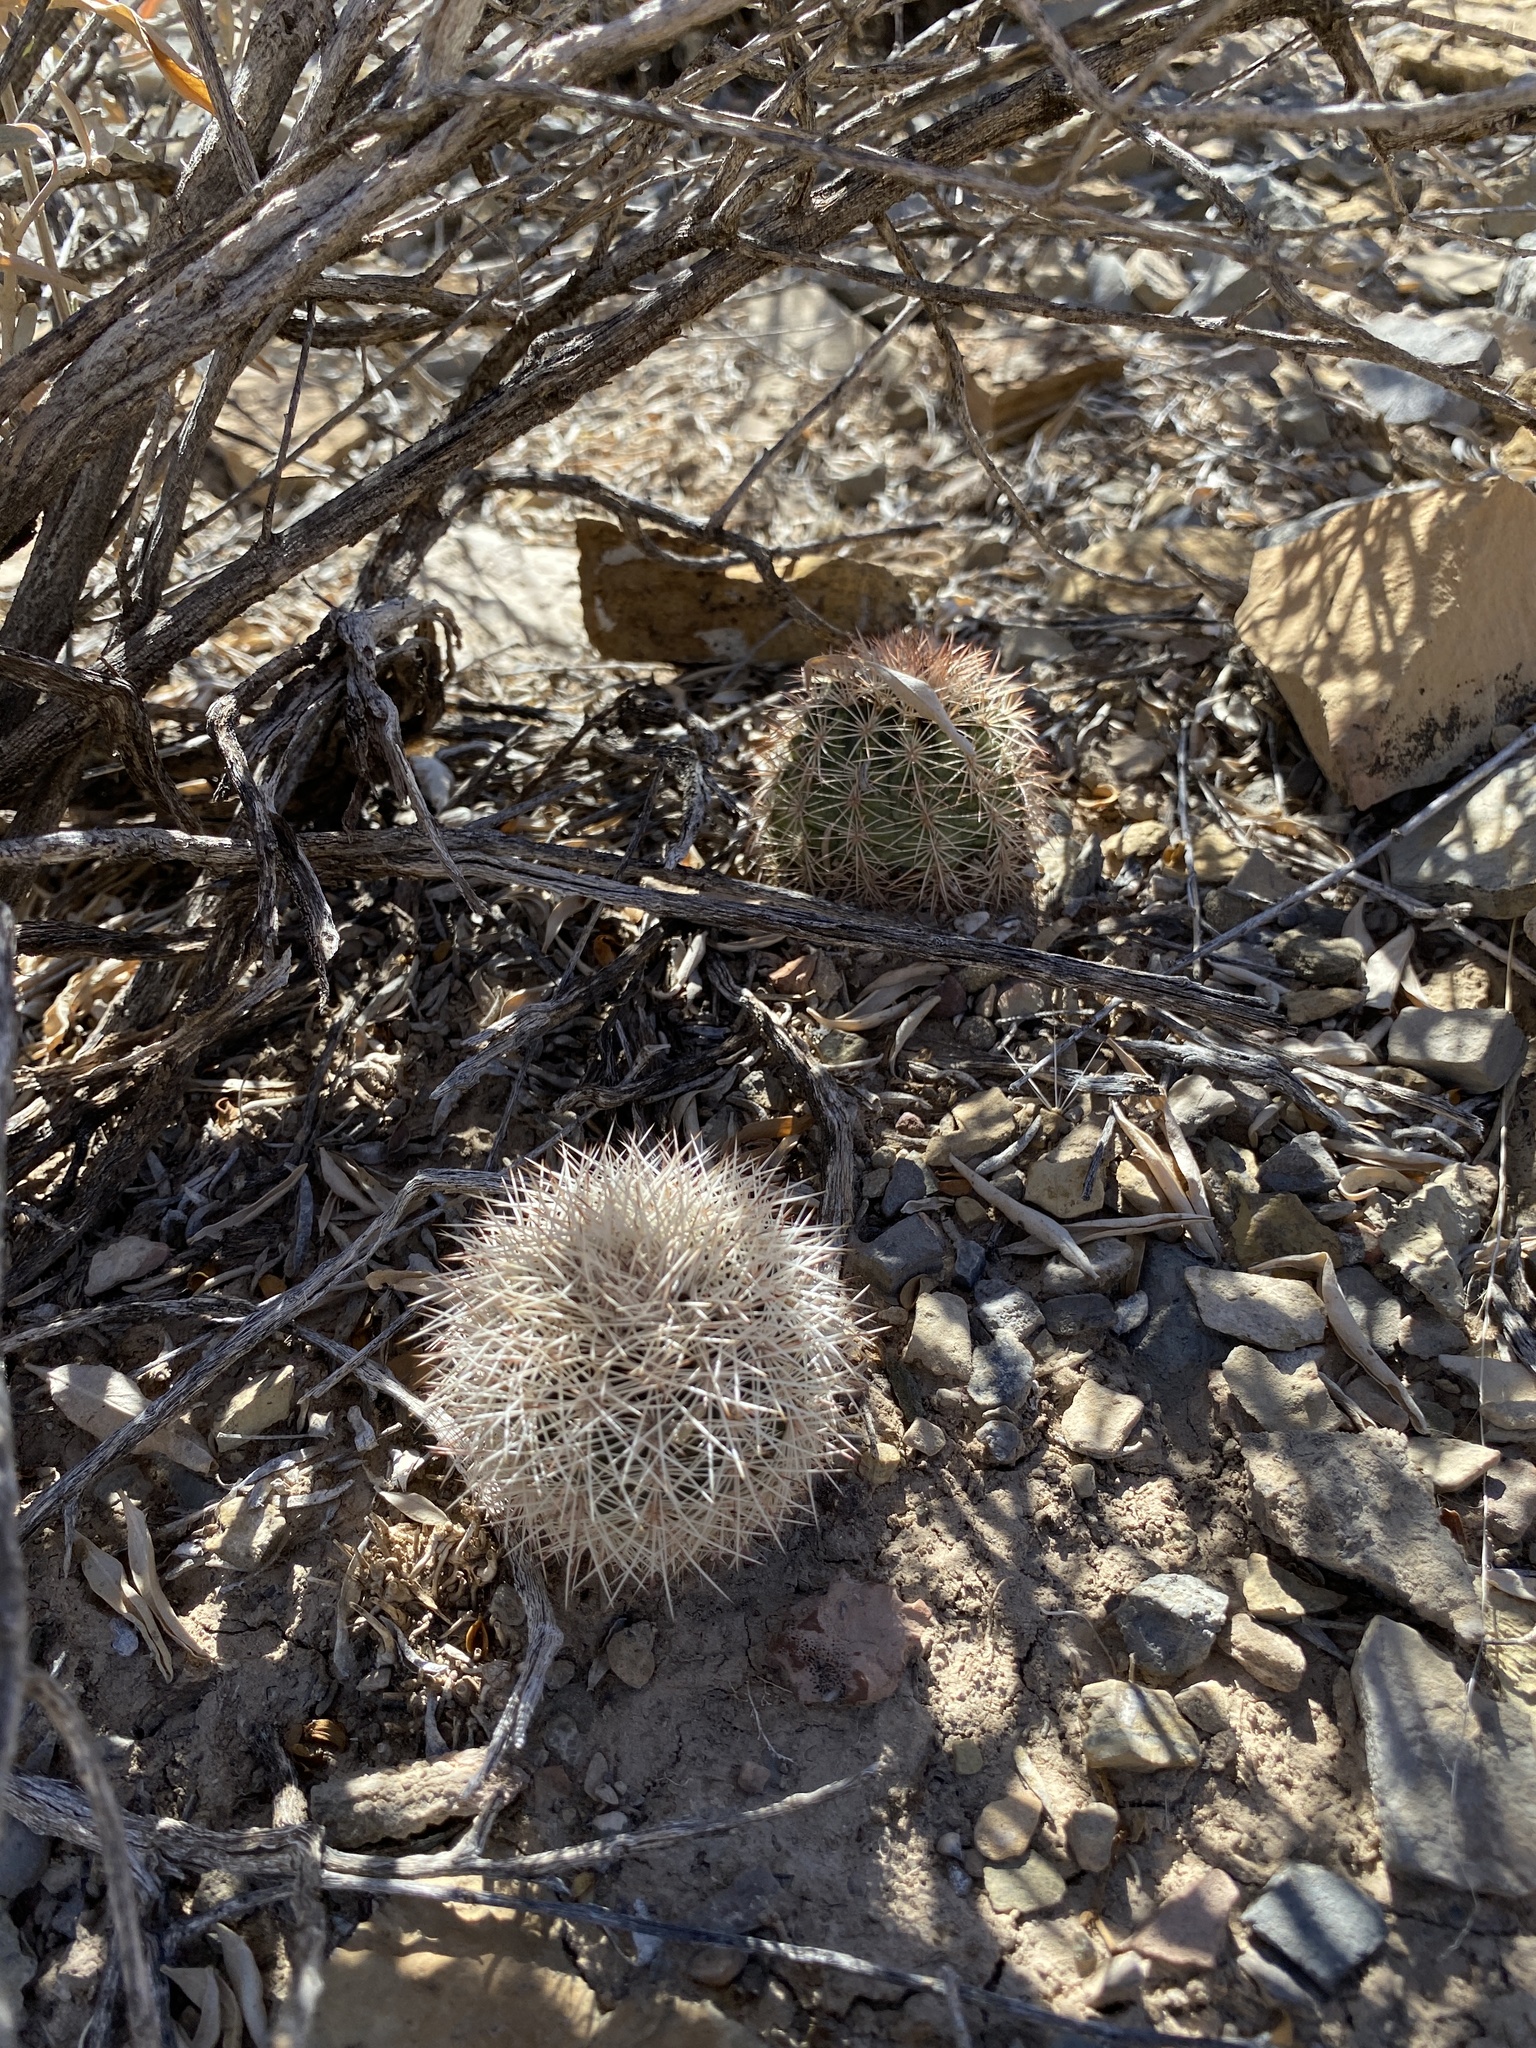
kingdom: Plantae
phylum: Tracheophyta
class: Magnoliopsida
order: Caryophyllales
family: Cactaceae
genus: Echinocereus
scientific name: Echinocereus dasyacanthus
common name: Spiny hedgehog cactus
